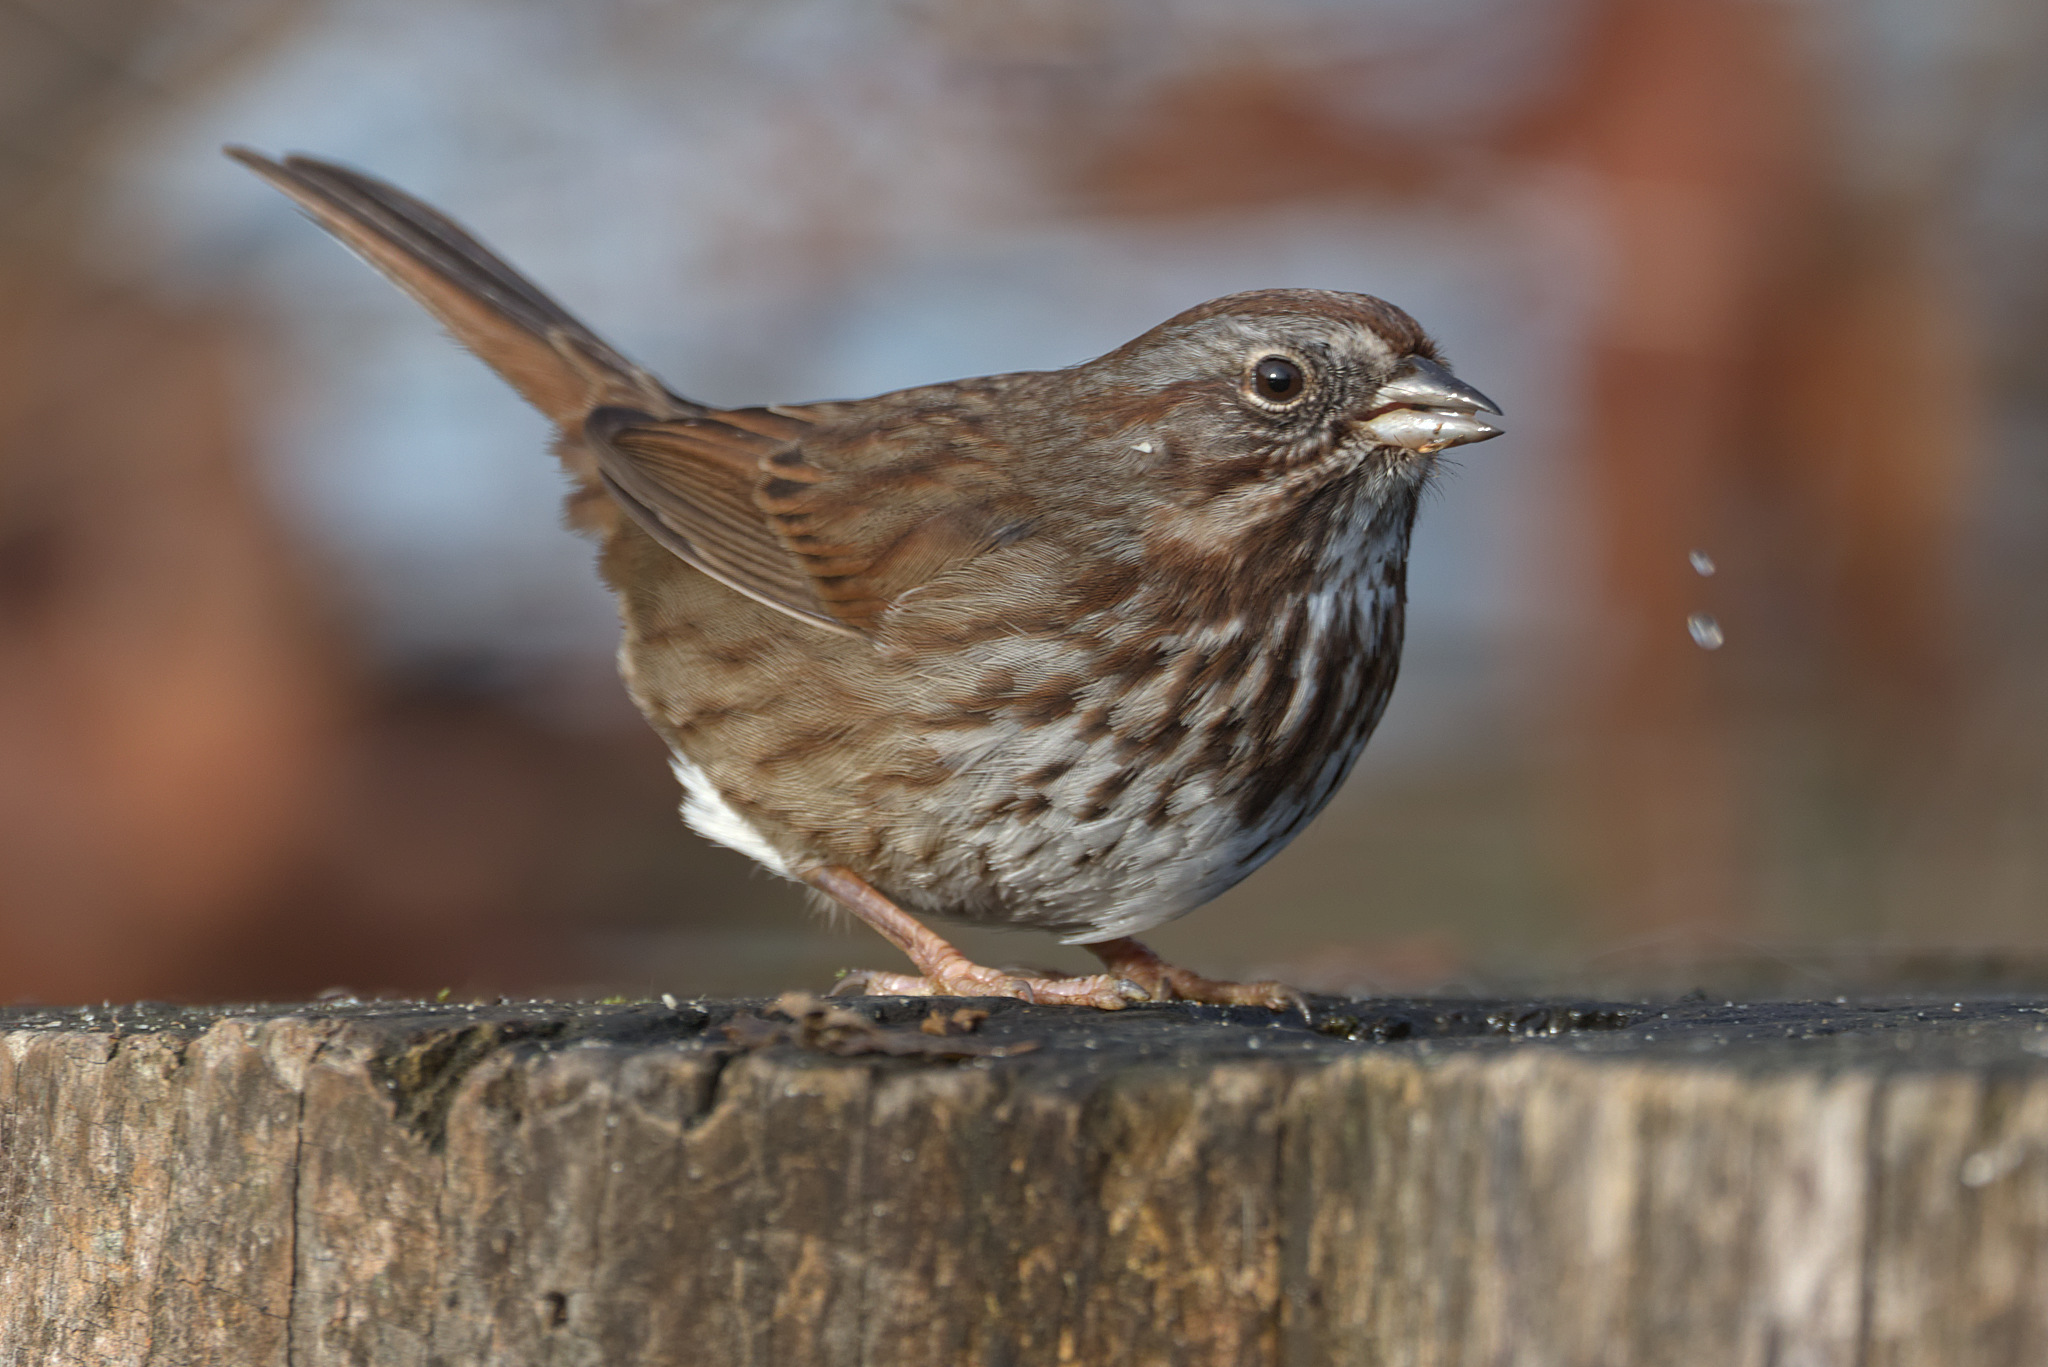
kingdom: Animalia
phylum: Chordata
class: Aves
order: Passeriformes
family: Passerellidae
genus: Melospiza
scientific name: Melospiza melodia
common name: Song sparrow
